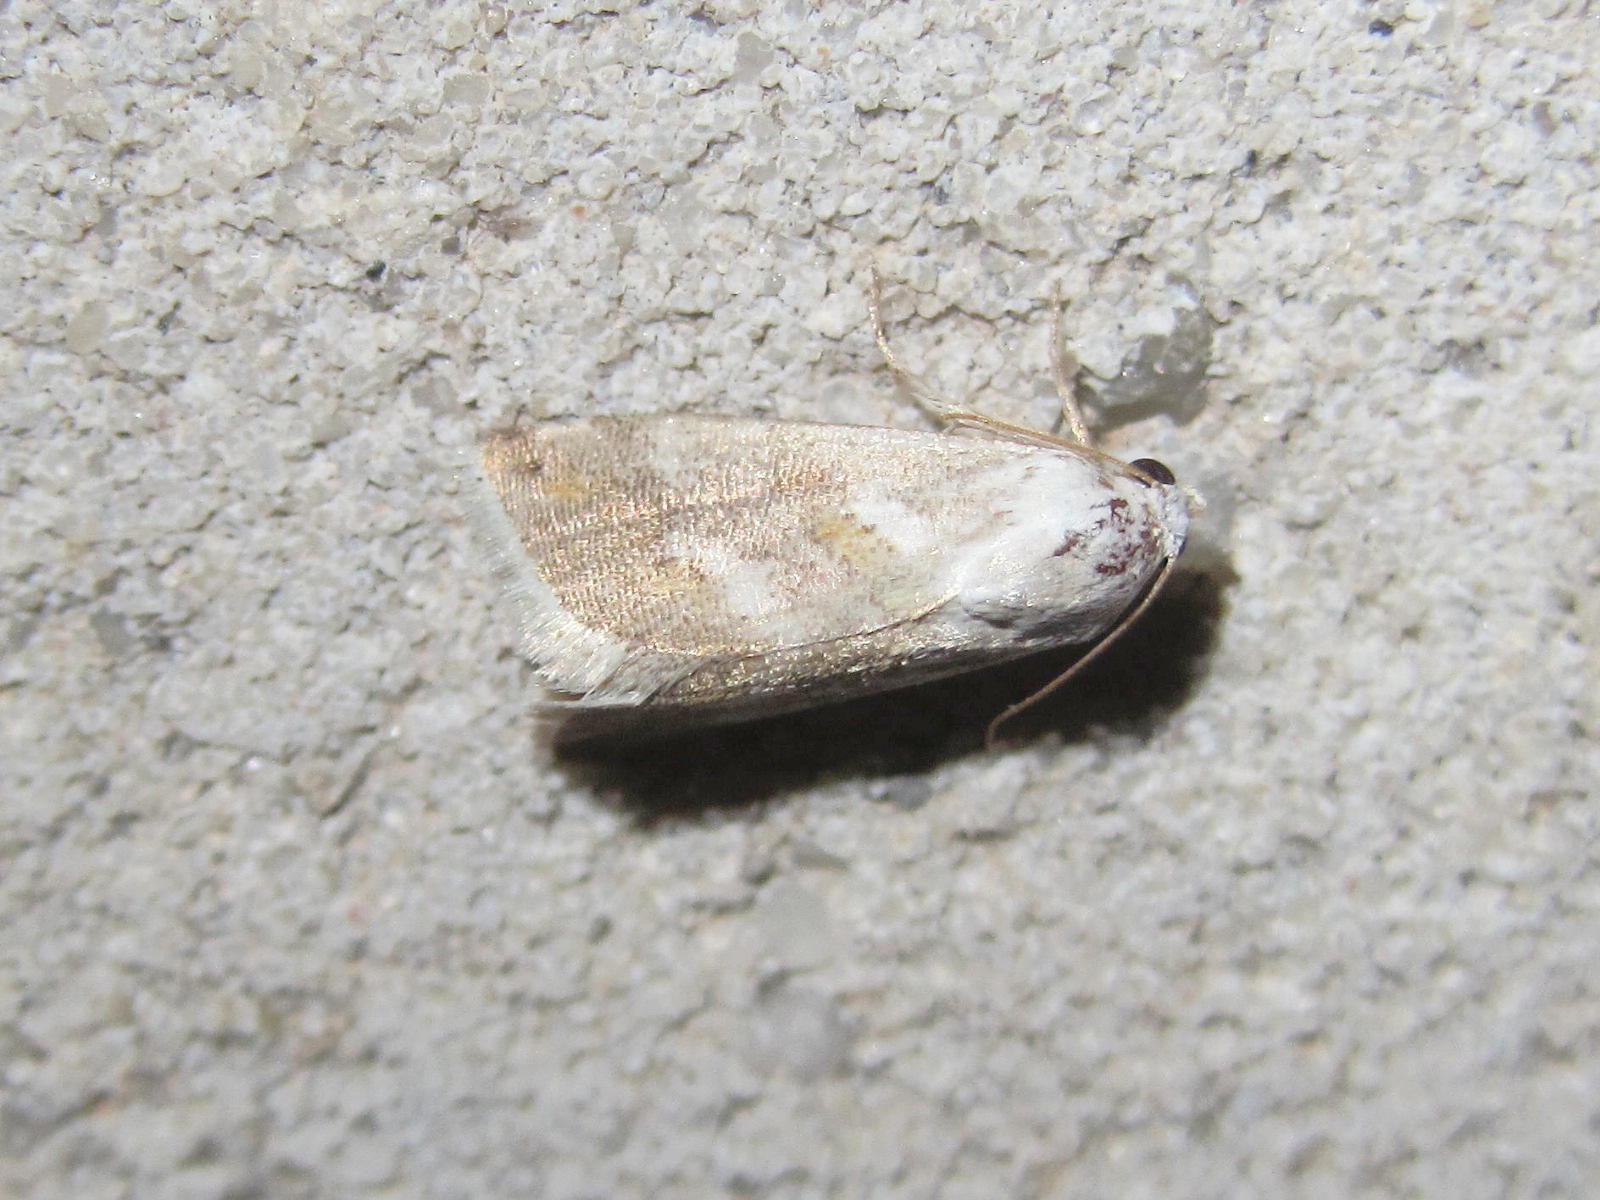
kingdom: Animalia
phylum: Arthropoda
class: Insecta
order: Lepidoptera
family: Noctuidae
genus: Eublemma
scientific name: Eublemma minutata
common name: Scarce marbled
